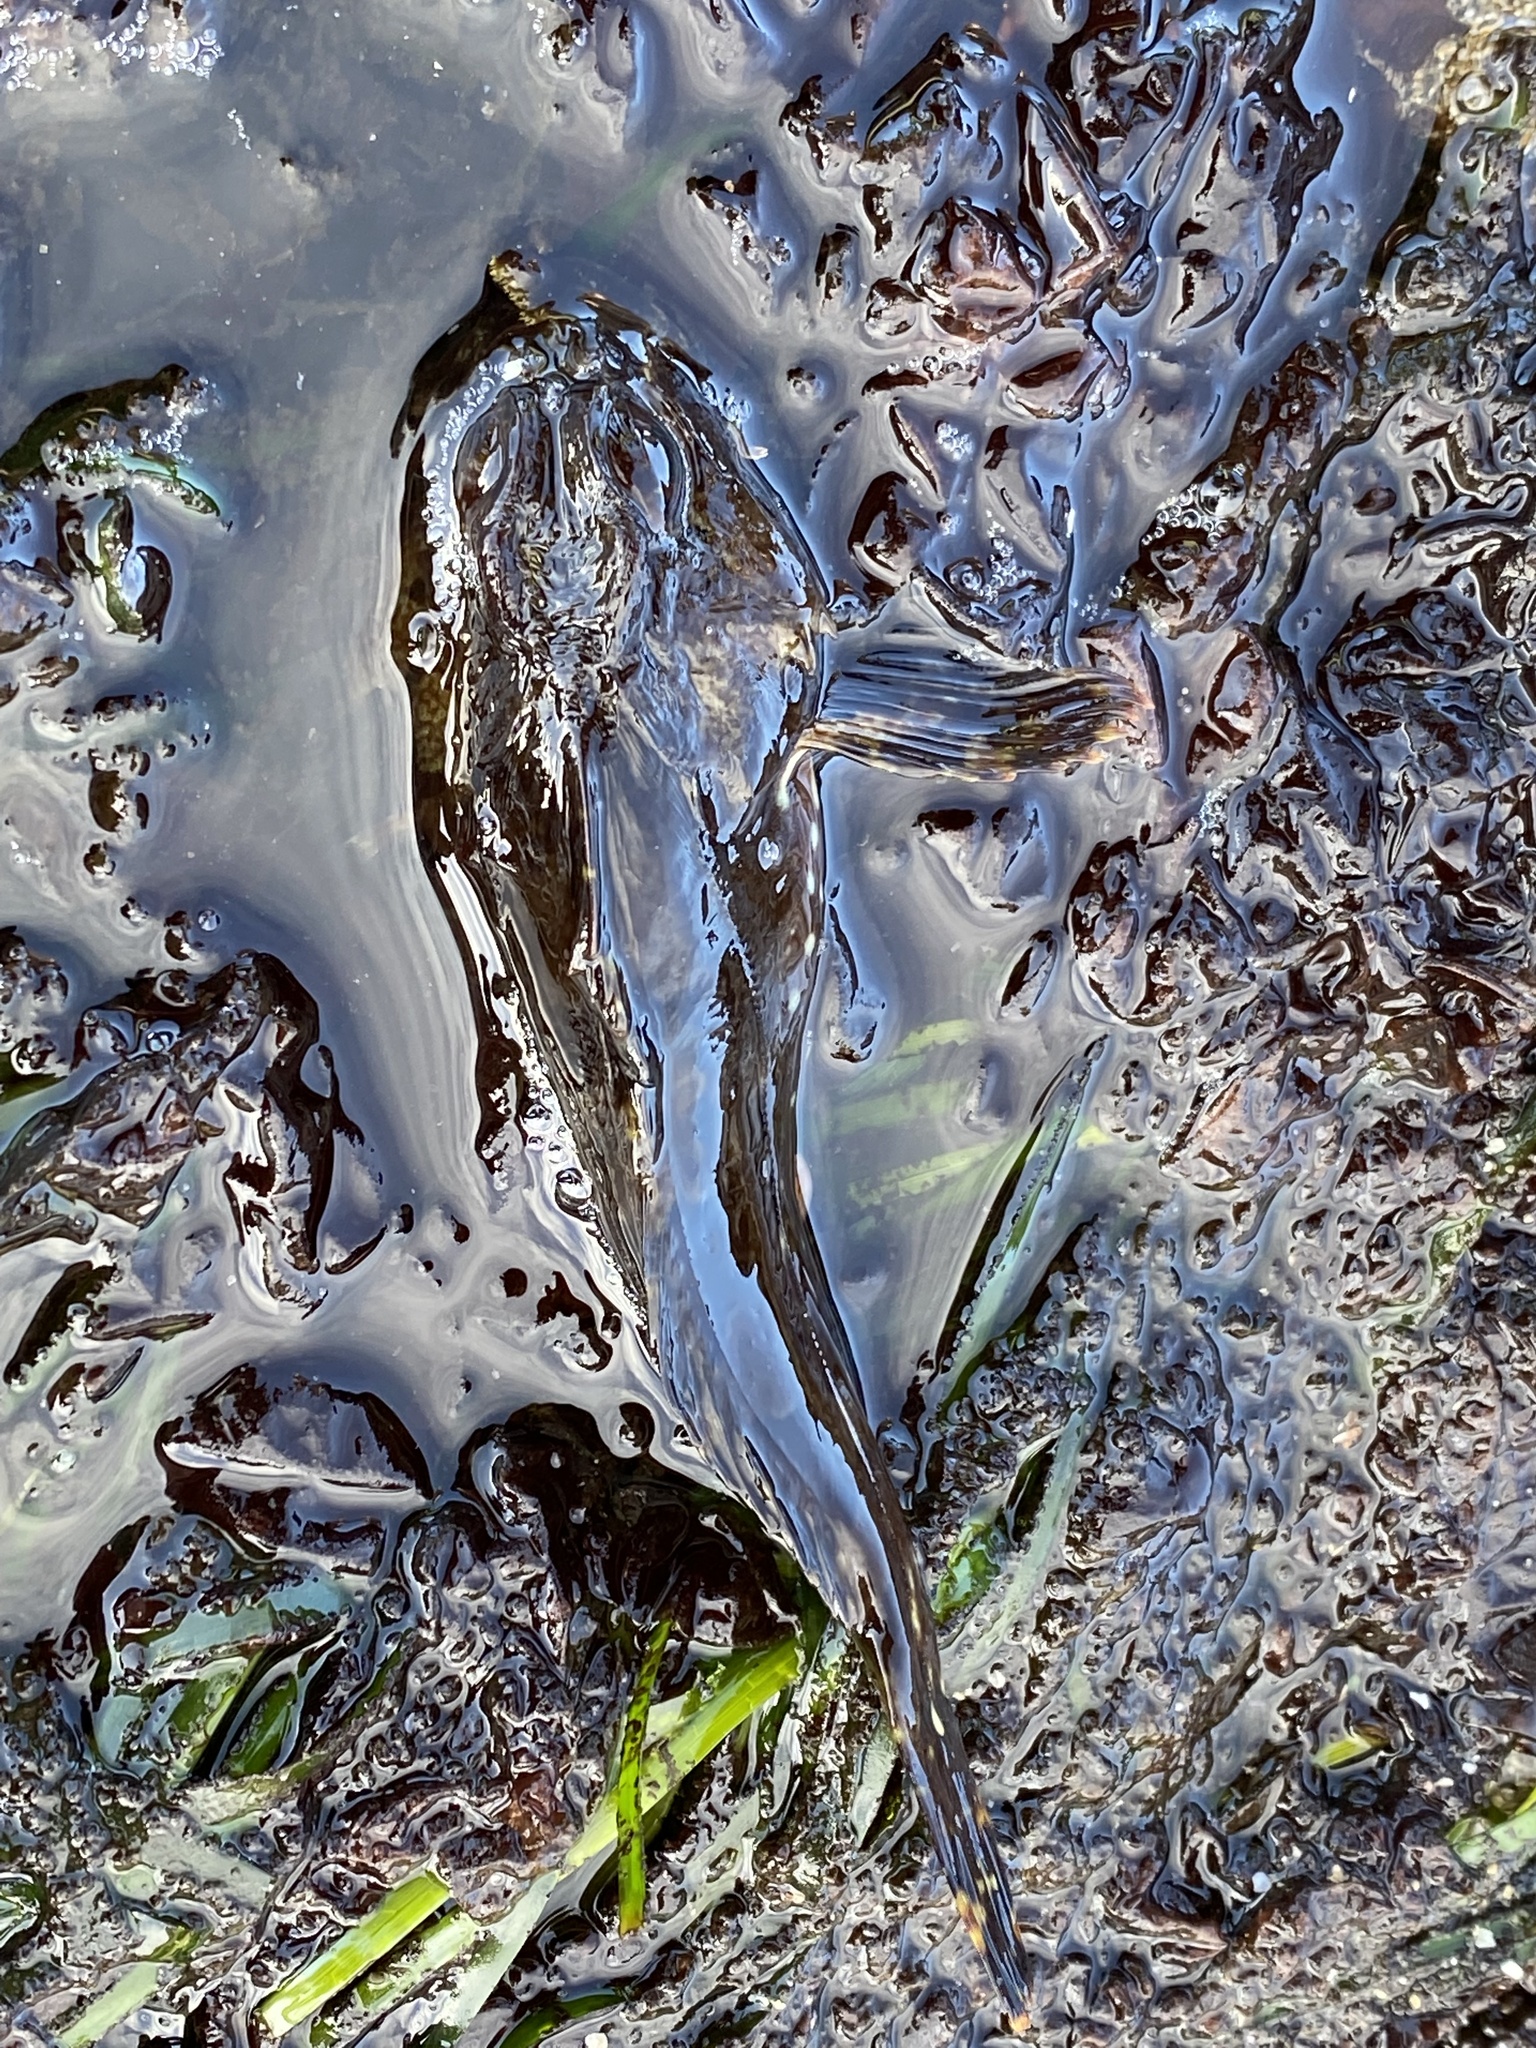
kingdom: Animalia
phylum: Chordata
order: Scorpaeniformes
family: Cottidae
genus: Scorpaenichthys
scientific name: Scorpaenichthys marmoratus
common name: Cabezon
